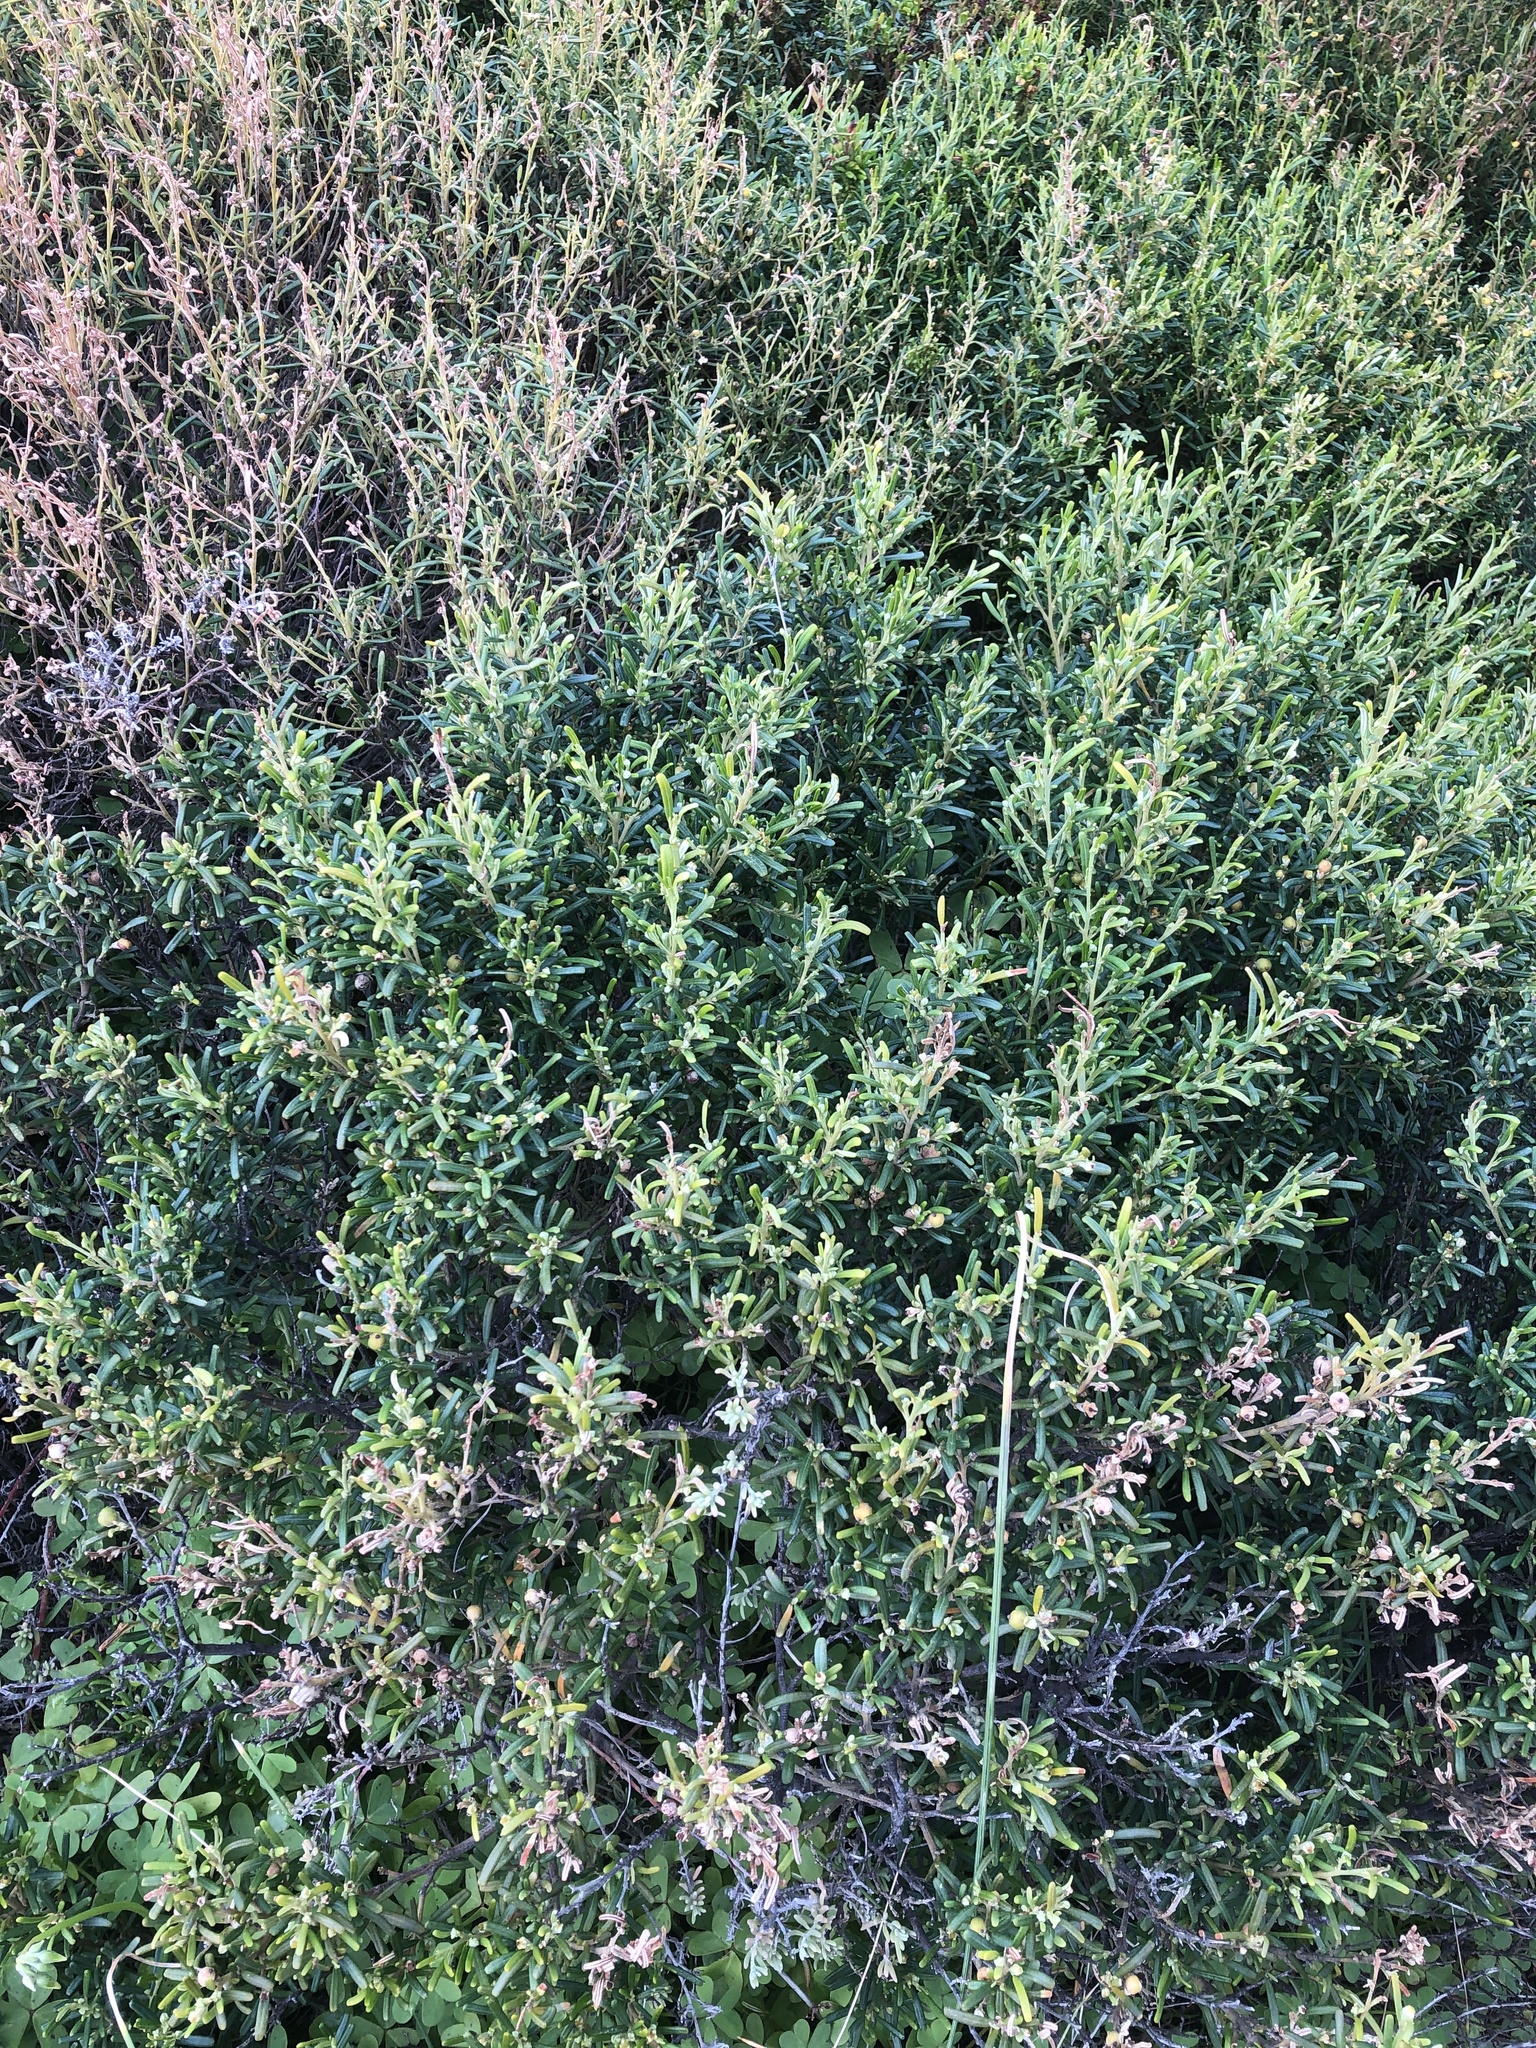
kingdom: Plantae
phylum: Tracheophyta
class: Magnoliopsida
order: Malpighiales
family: Euphorbiaceae
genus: Beyeria
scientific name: Beyeria lechenaultii
